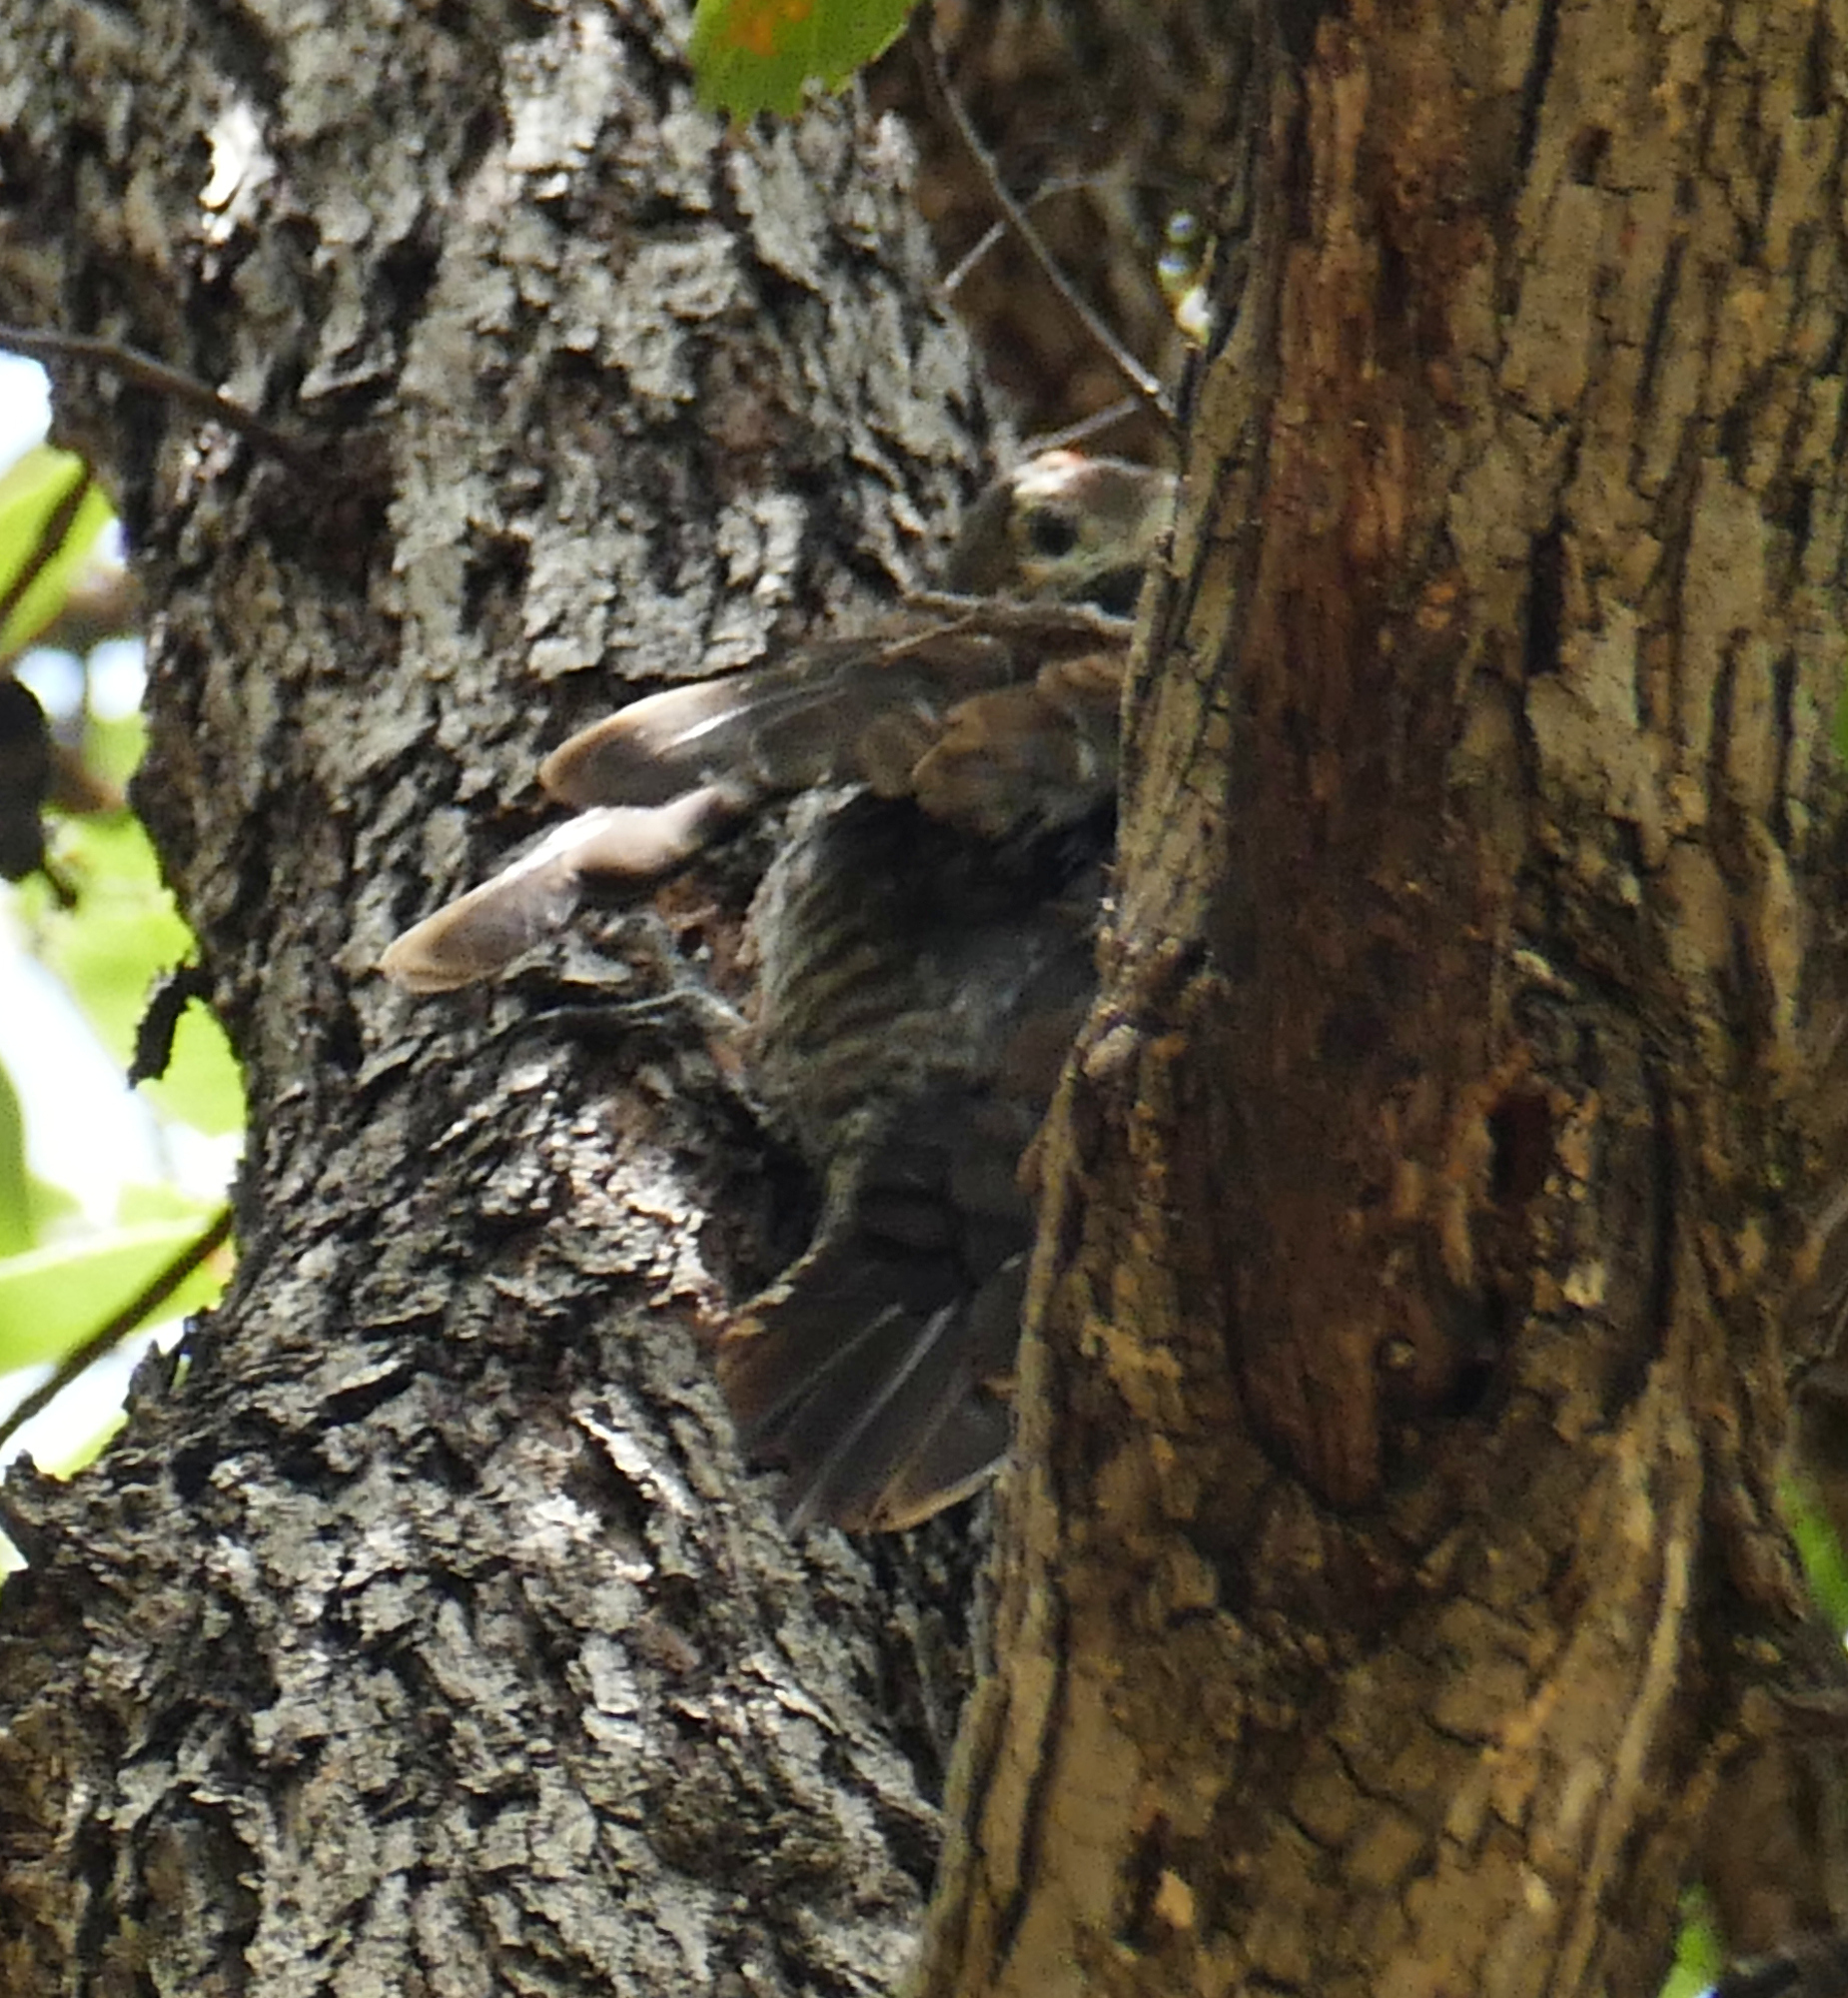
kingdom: Animalia
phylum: Chordata
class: Aves
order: Piciformes
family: Picidae
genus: Leuconotopicus
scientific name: Leuconotopicus arizonae
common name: Arizona woodpecker
